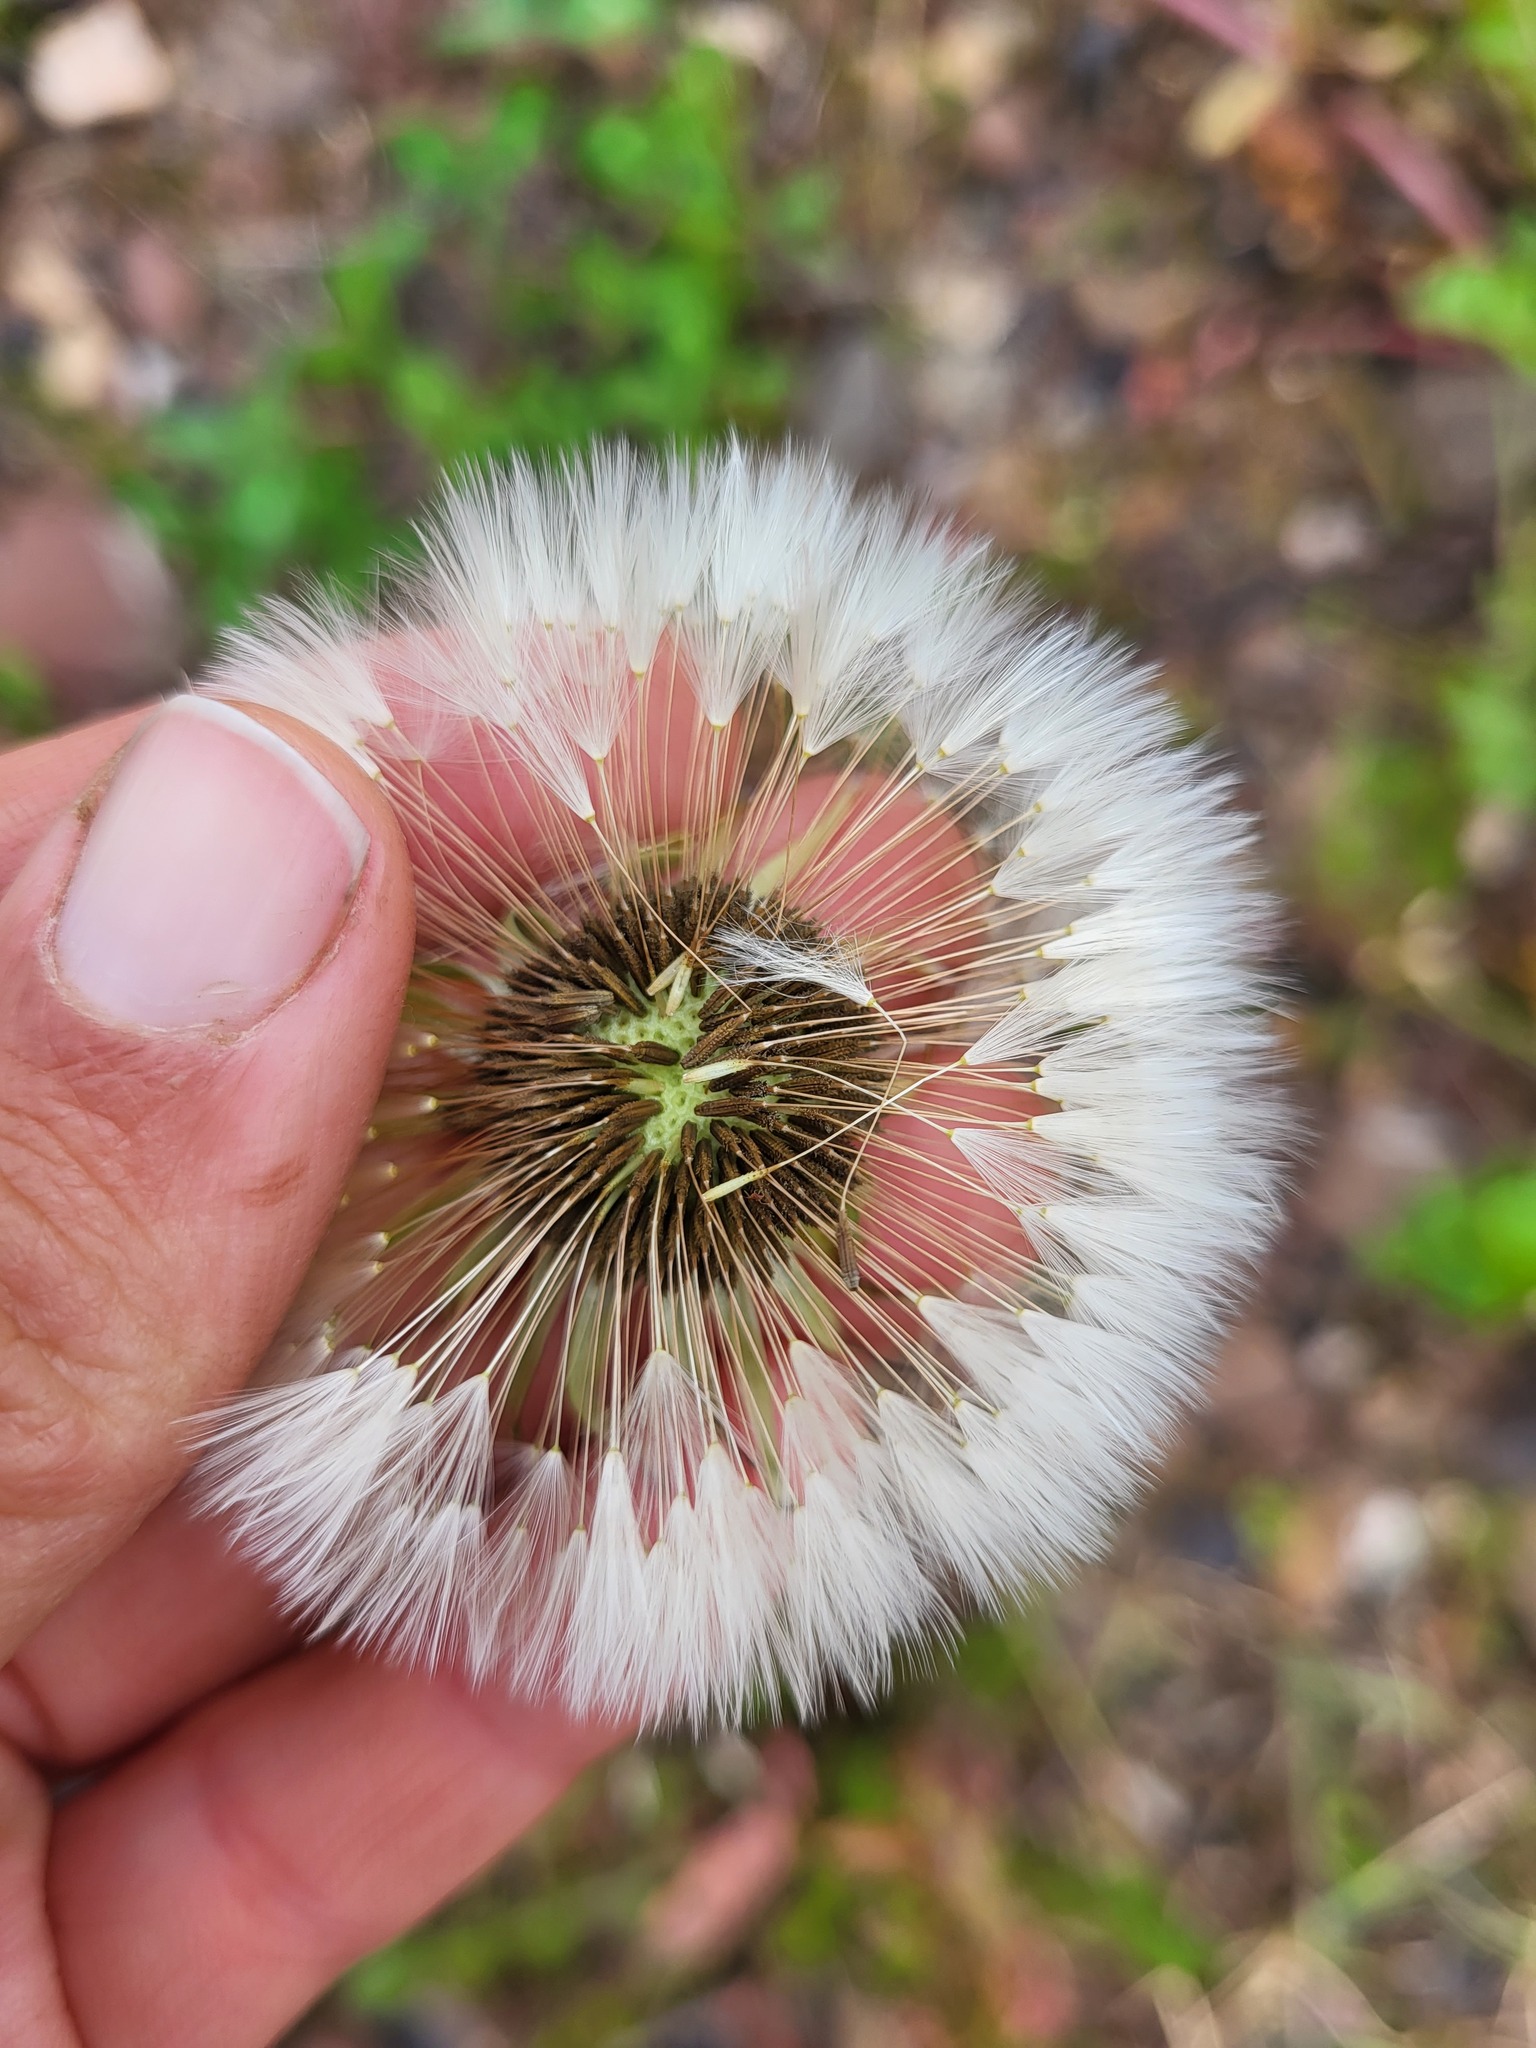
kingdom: Plantae
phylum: Tracheophyta
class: Magnoliopsida
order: Asterales
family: Asteraceae
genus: Taraxacum
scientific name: Taraxacum officinale
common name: Common dandelion
